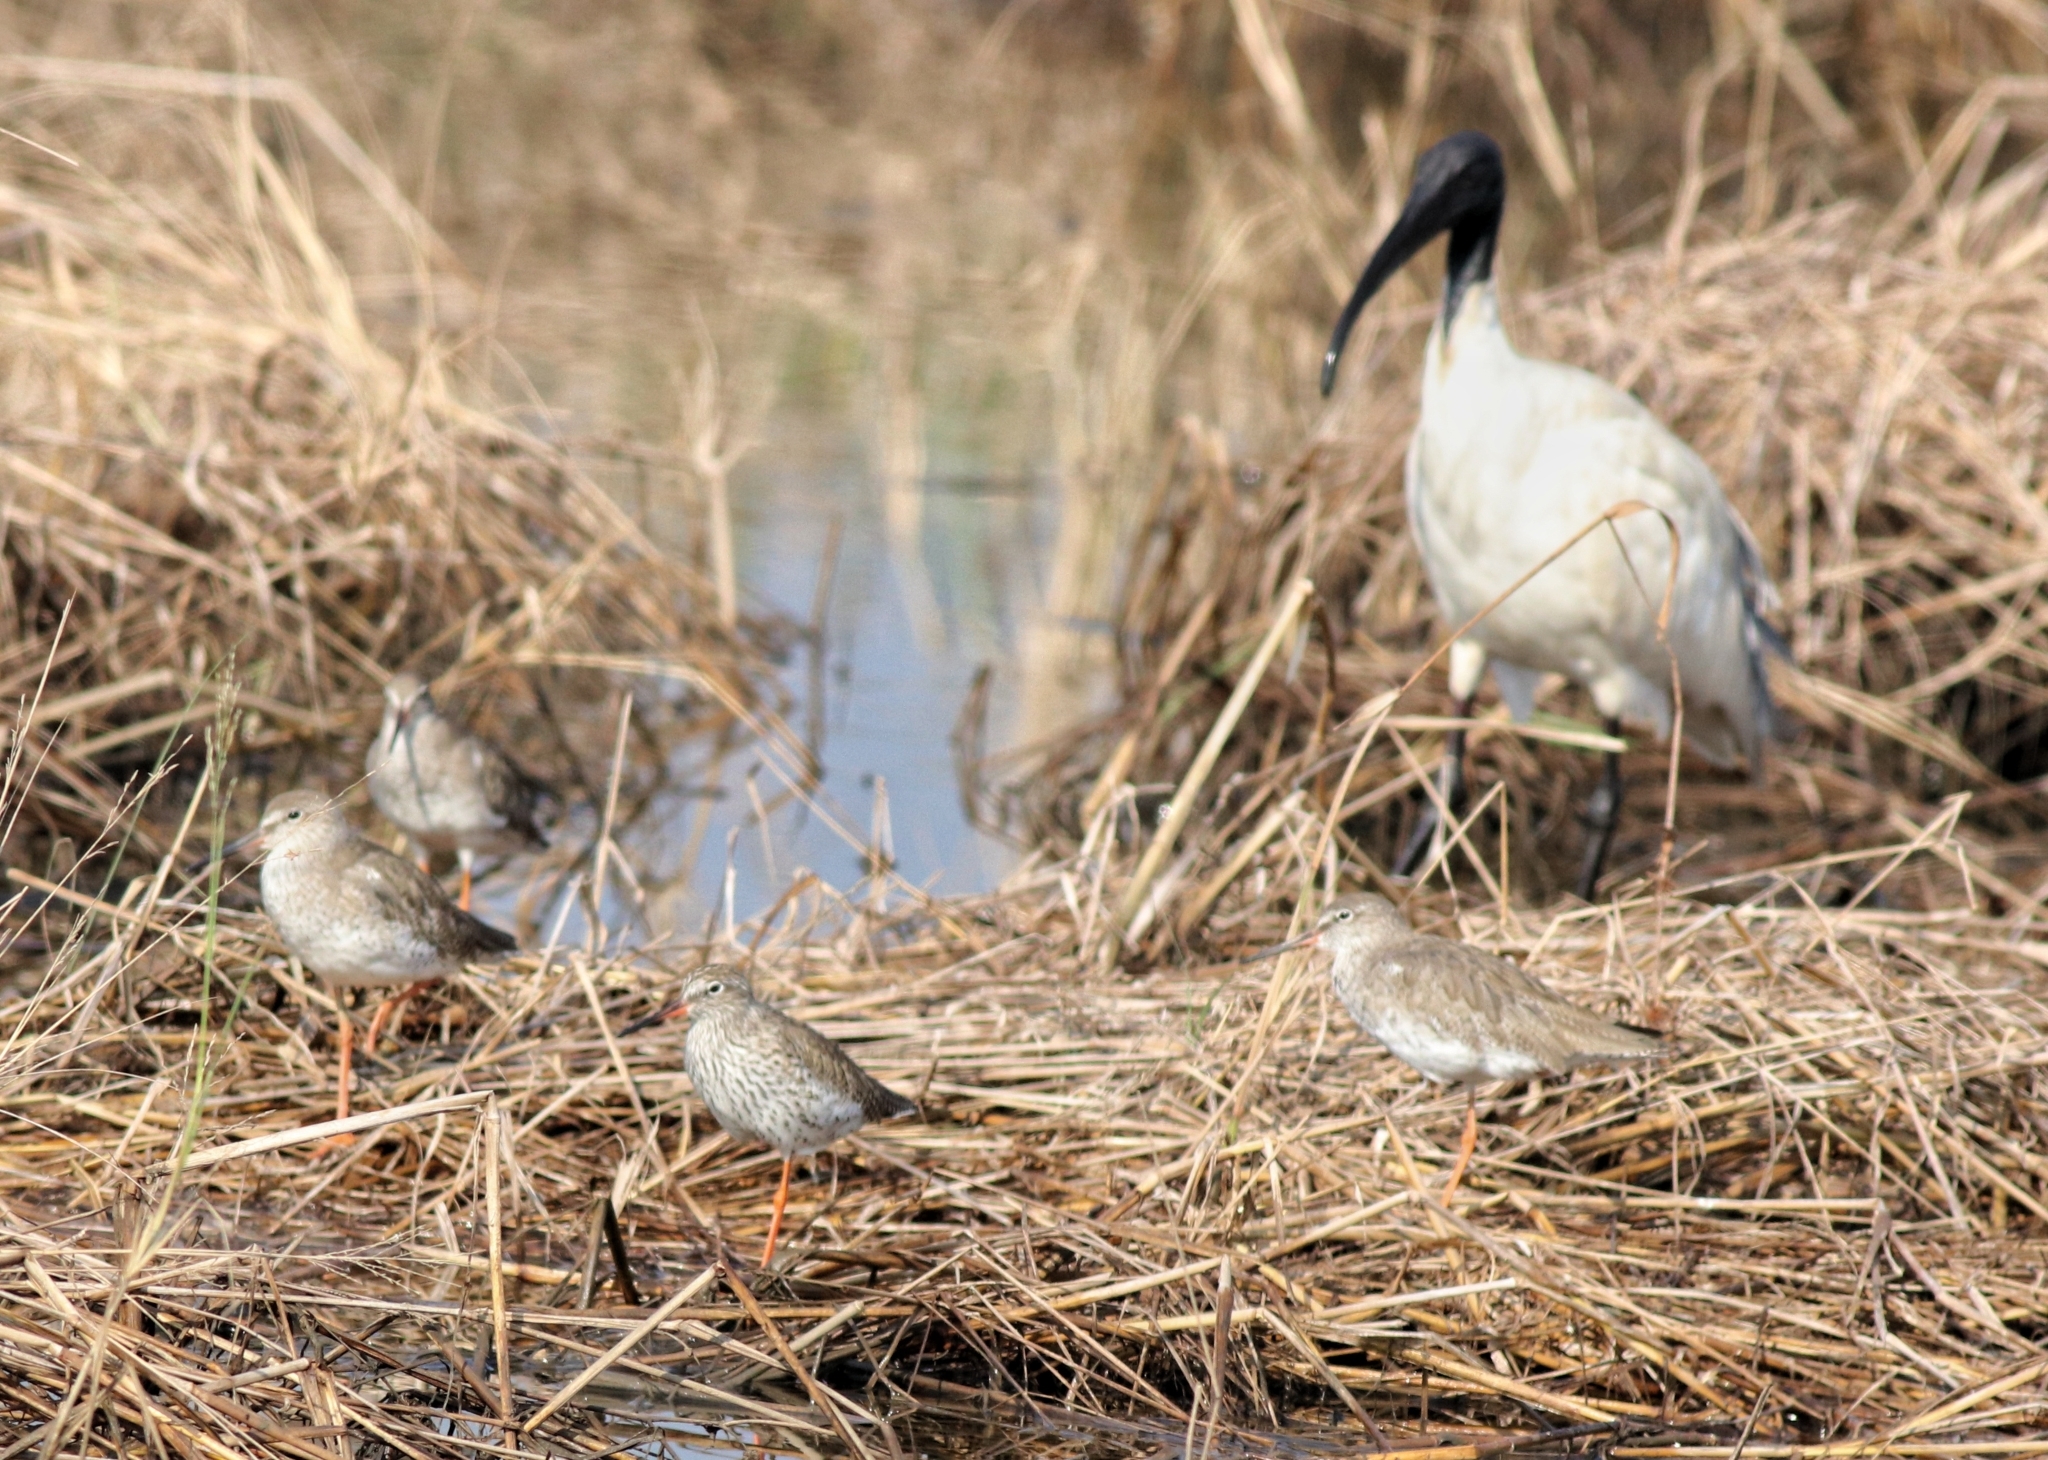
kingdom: Animalia
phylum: Chordata
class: Aves
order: Pelecaniformes
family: Threskiornithidae
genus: Threskiornis
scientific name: Threskiornis melanocephalus
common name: Black-headed ibis
